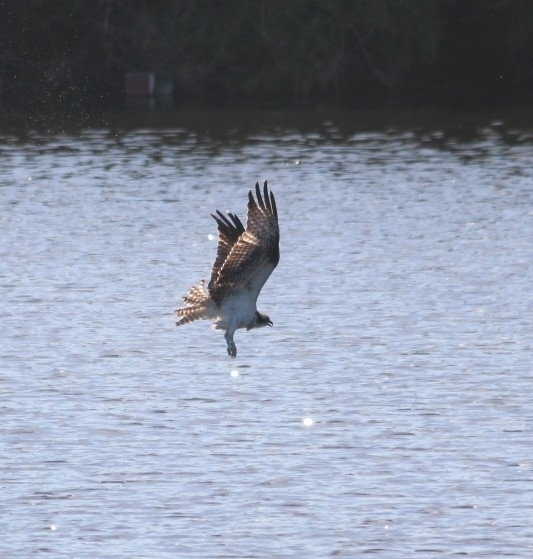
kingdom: Animalia
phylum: Chordata
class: Aves
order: Accipitriformes
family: Pandionidae
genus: Pandion
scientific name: Pandion haliaetus
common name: Osprey
